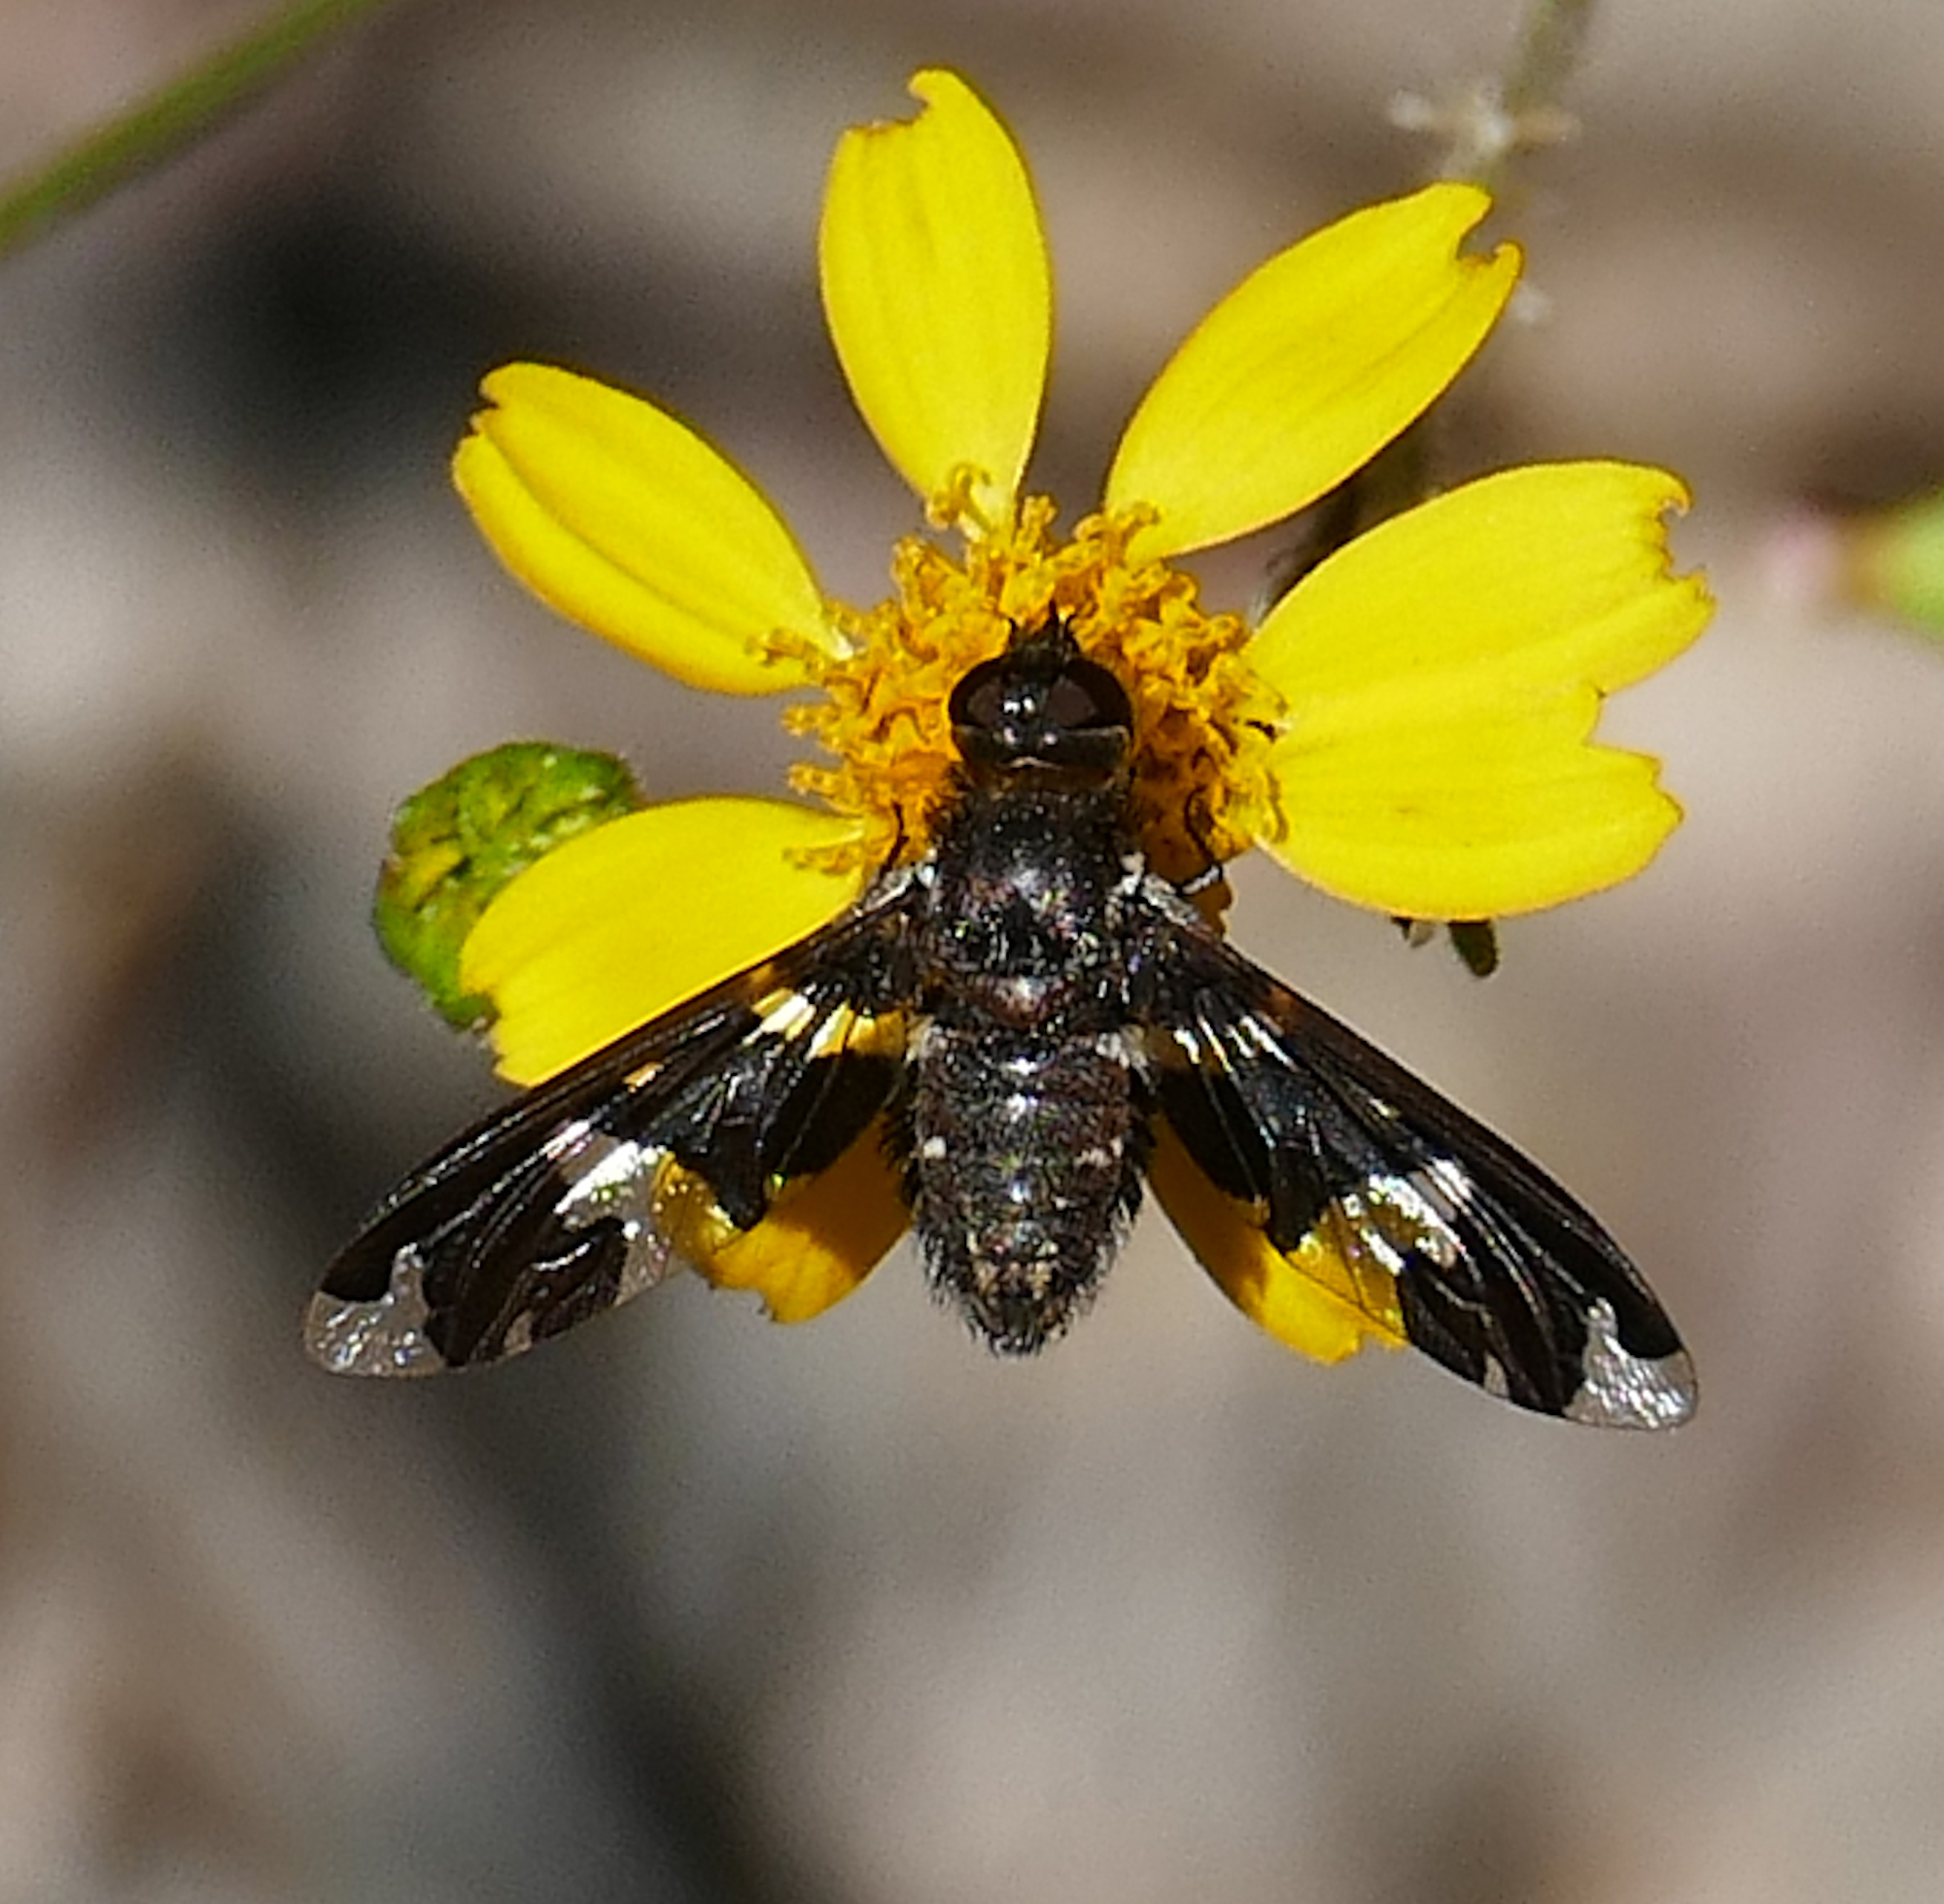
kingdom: Animalia
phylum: Arthropoda
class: Insecta
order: Diptera
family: Bombyliidae
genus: Exoprosopa
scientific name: Exoprosopa dorcadion
